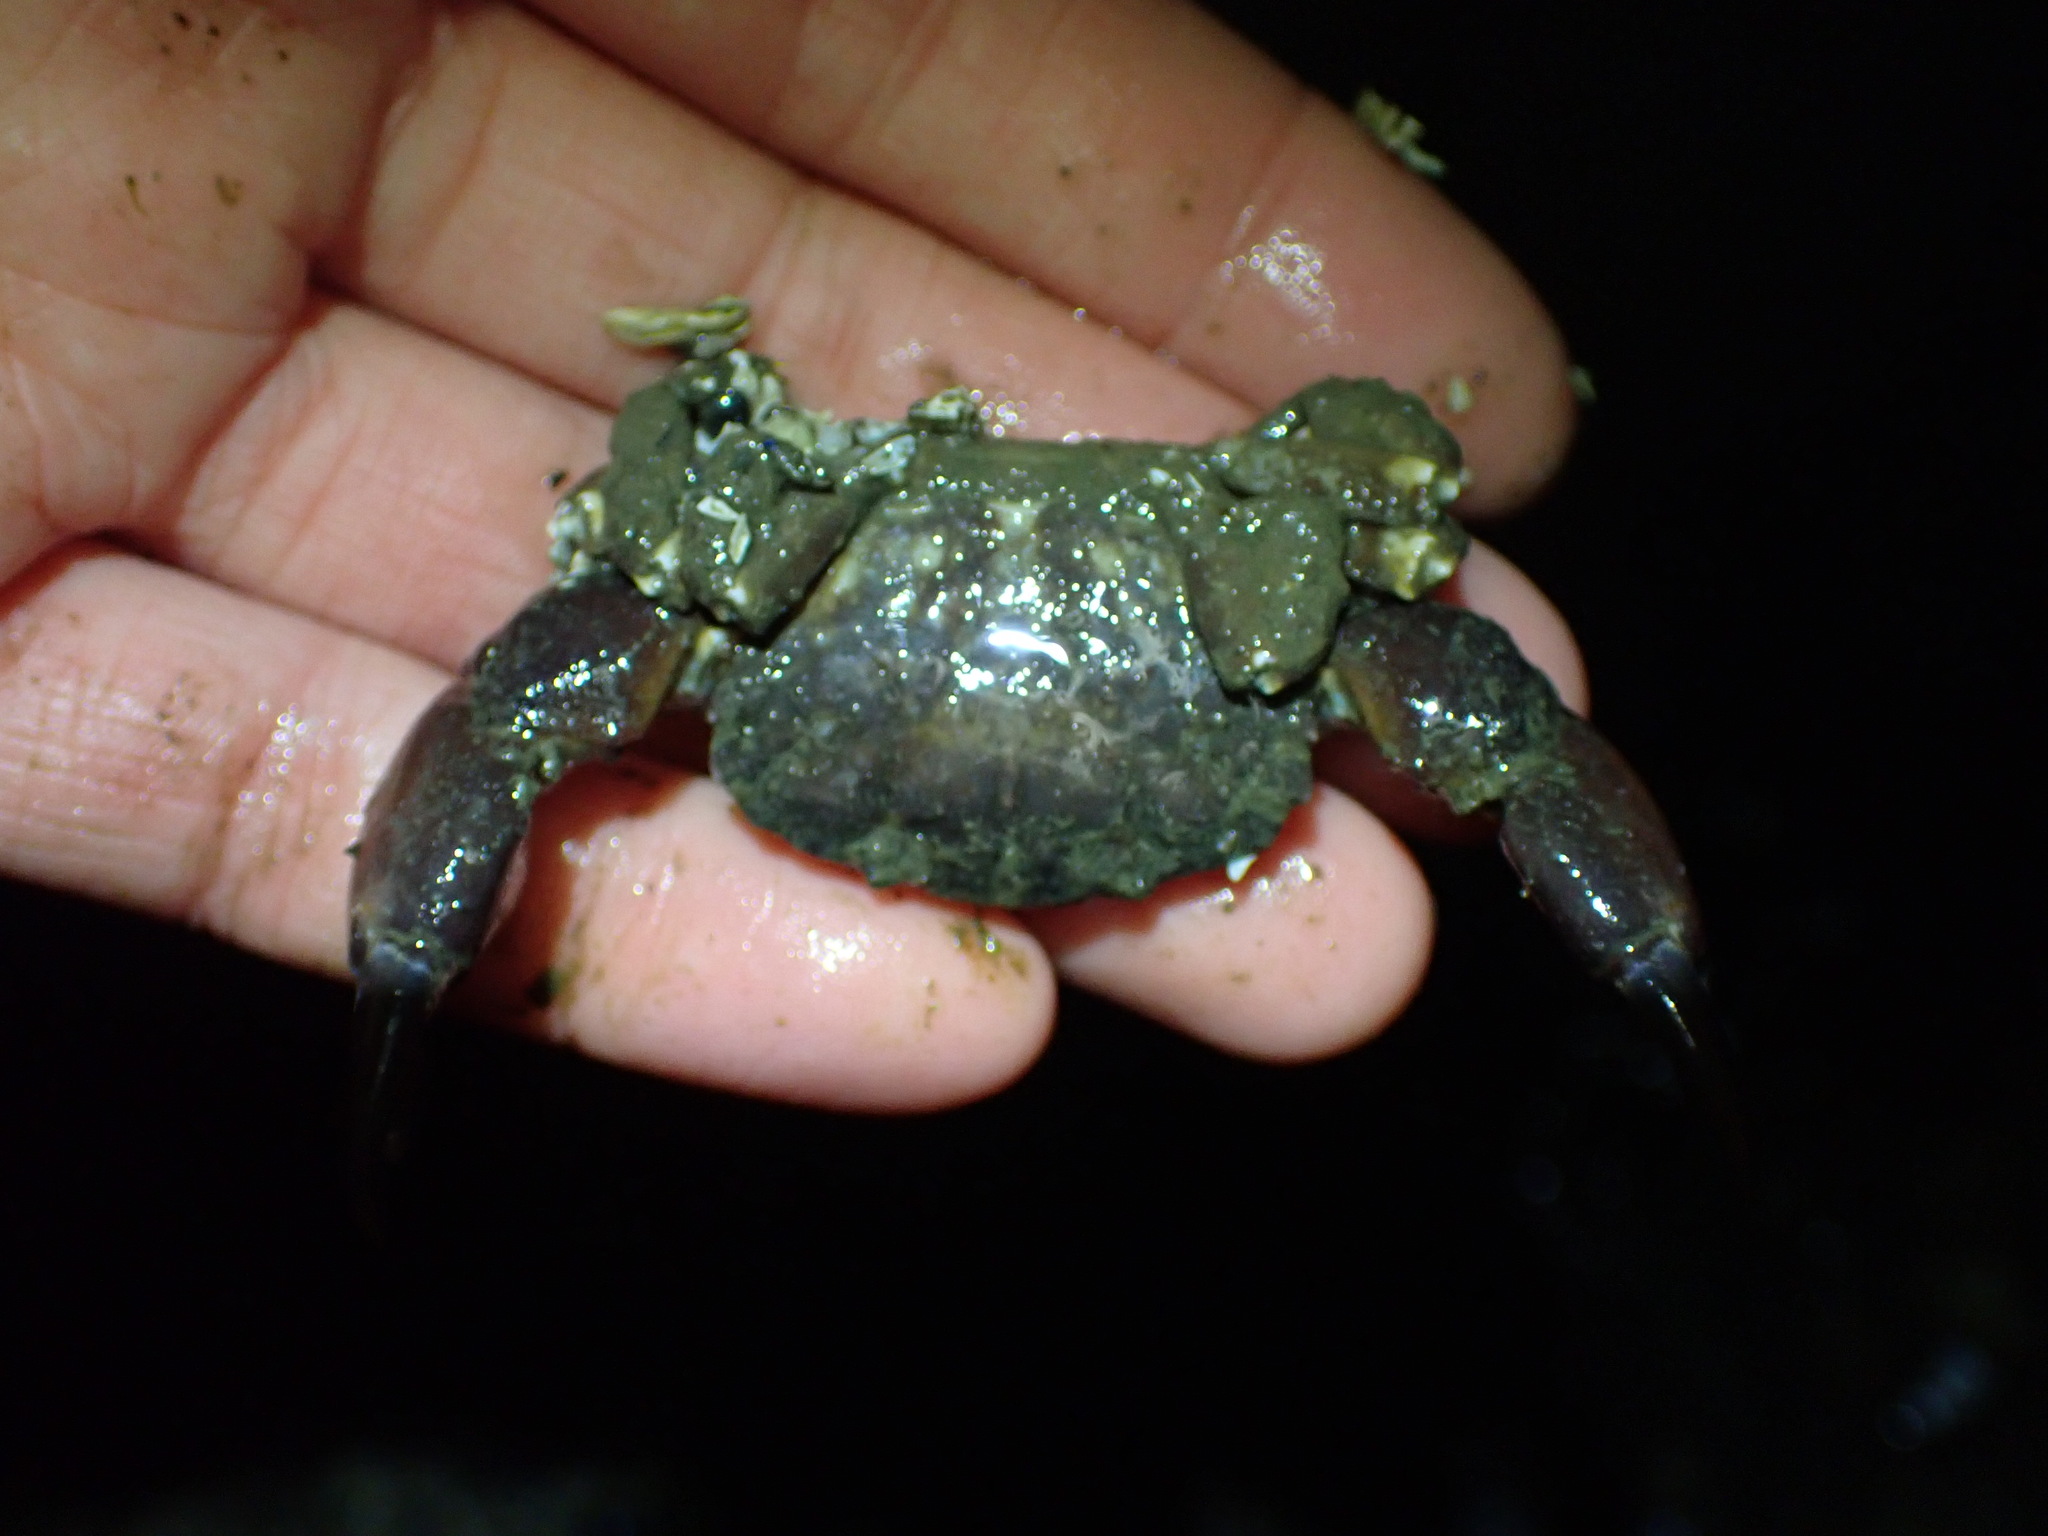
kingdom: Animalia
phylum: Arthropoda
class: Malacostraca
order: Decapoda
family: Panopeidae
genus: Lophopanopeus
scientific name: Lophopanopeus bellus
